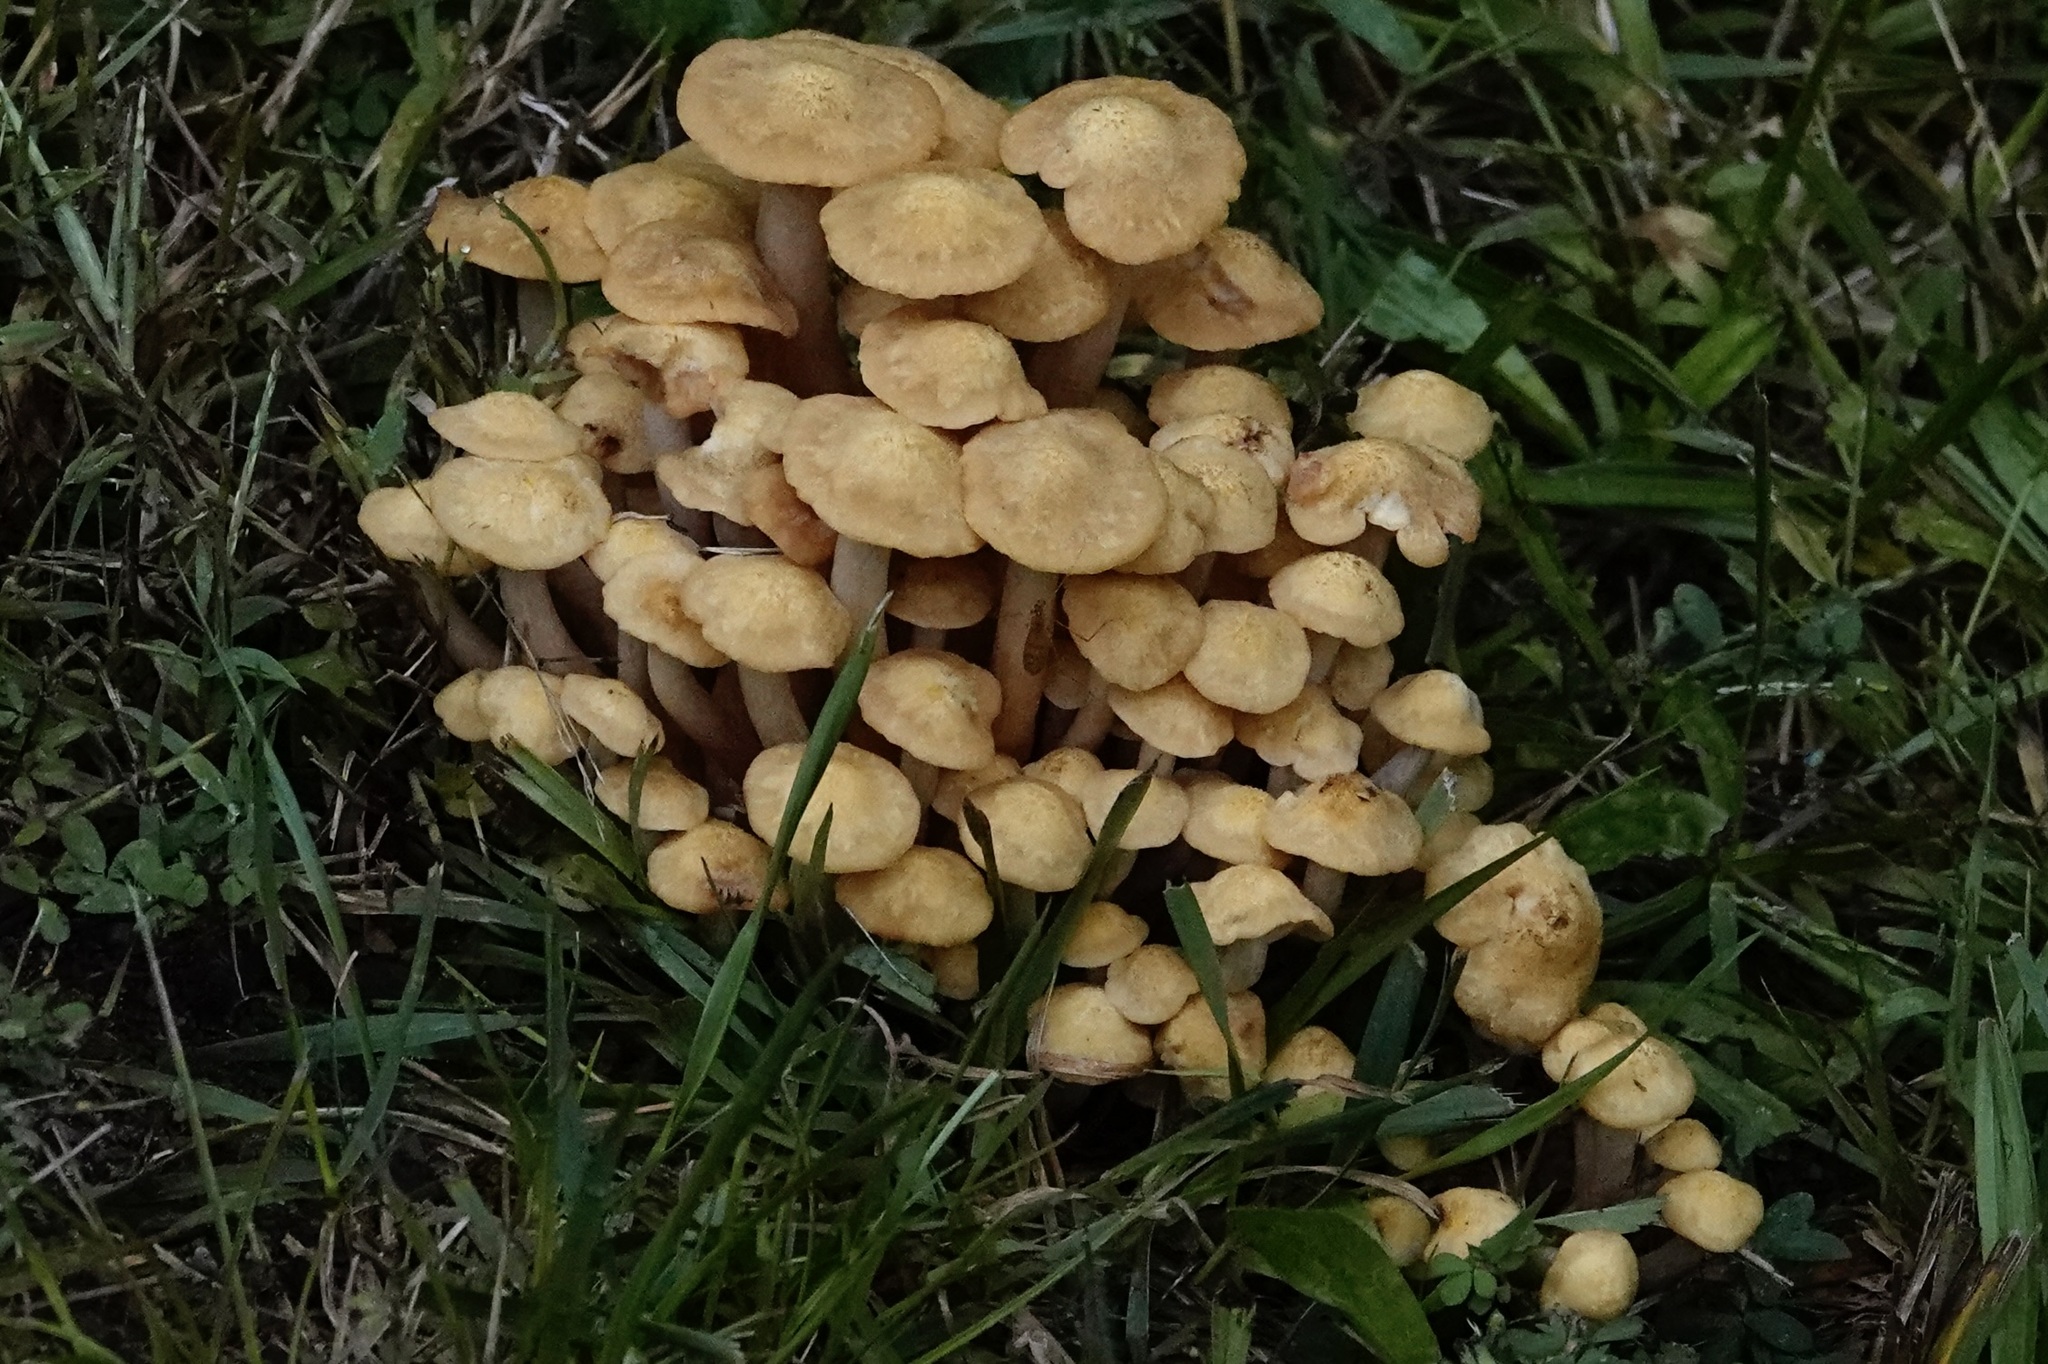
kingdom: Fungi
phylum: Basidiomycota
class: Agaricomycetes
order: Agaricales
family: Physalacriaceae
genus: Desarmillaria
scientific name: Desarmillaria caespitosa
